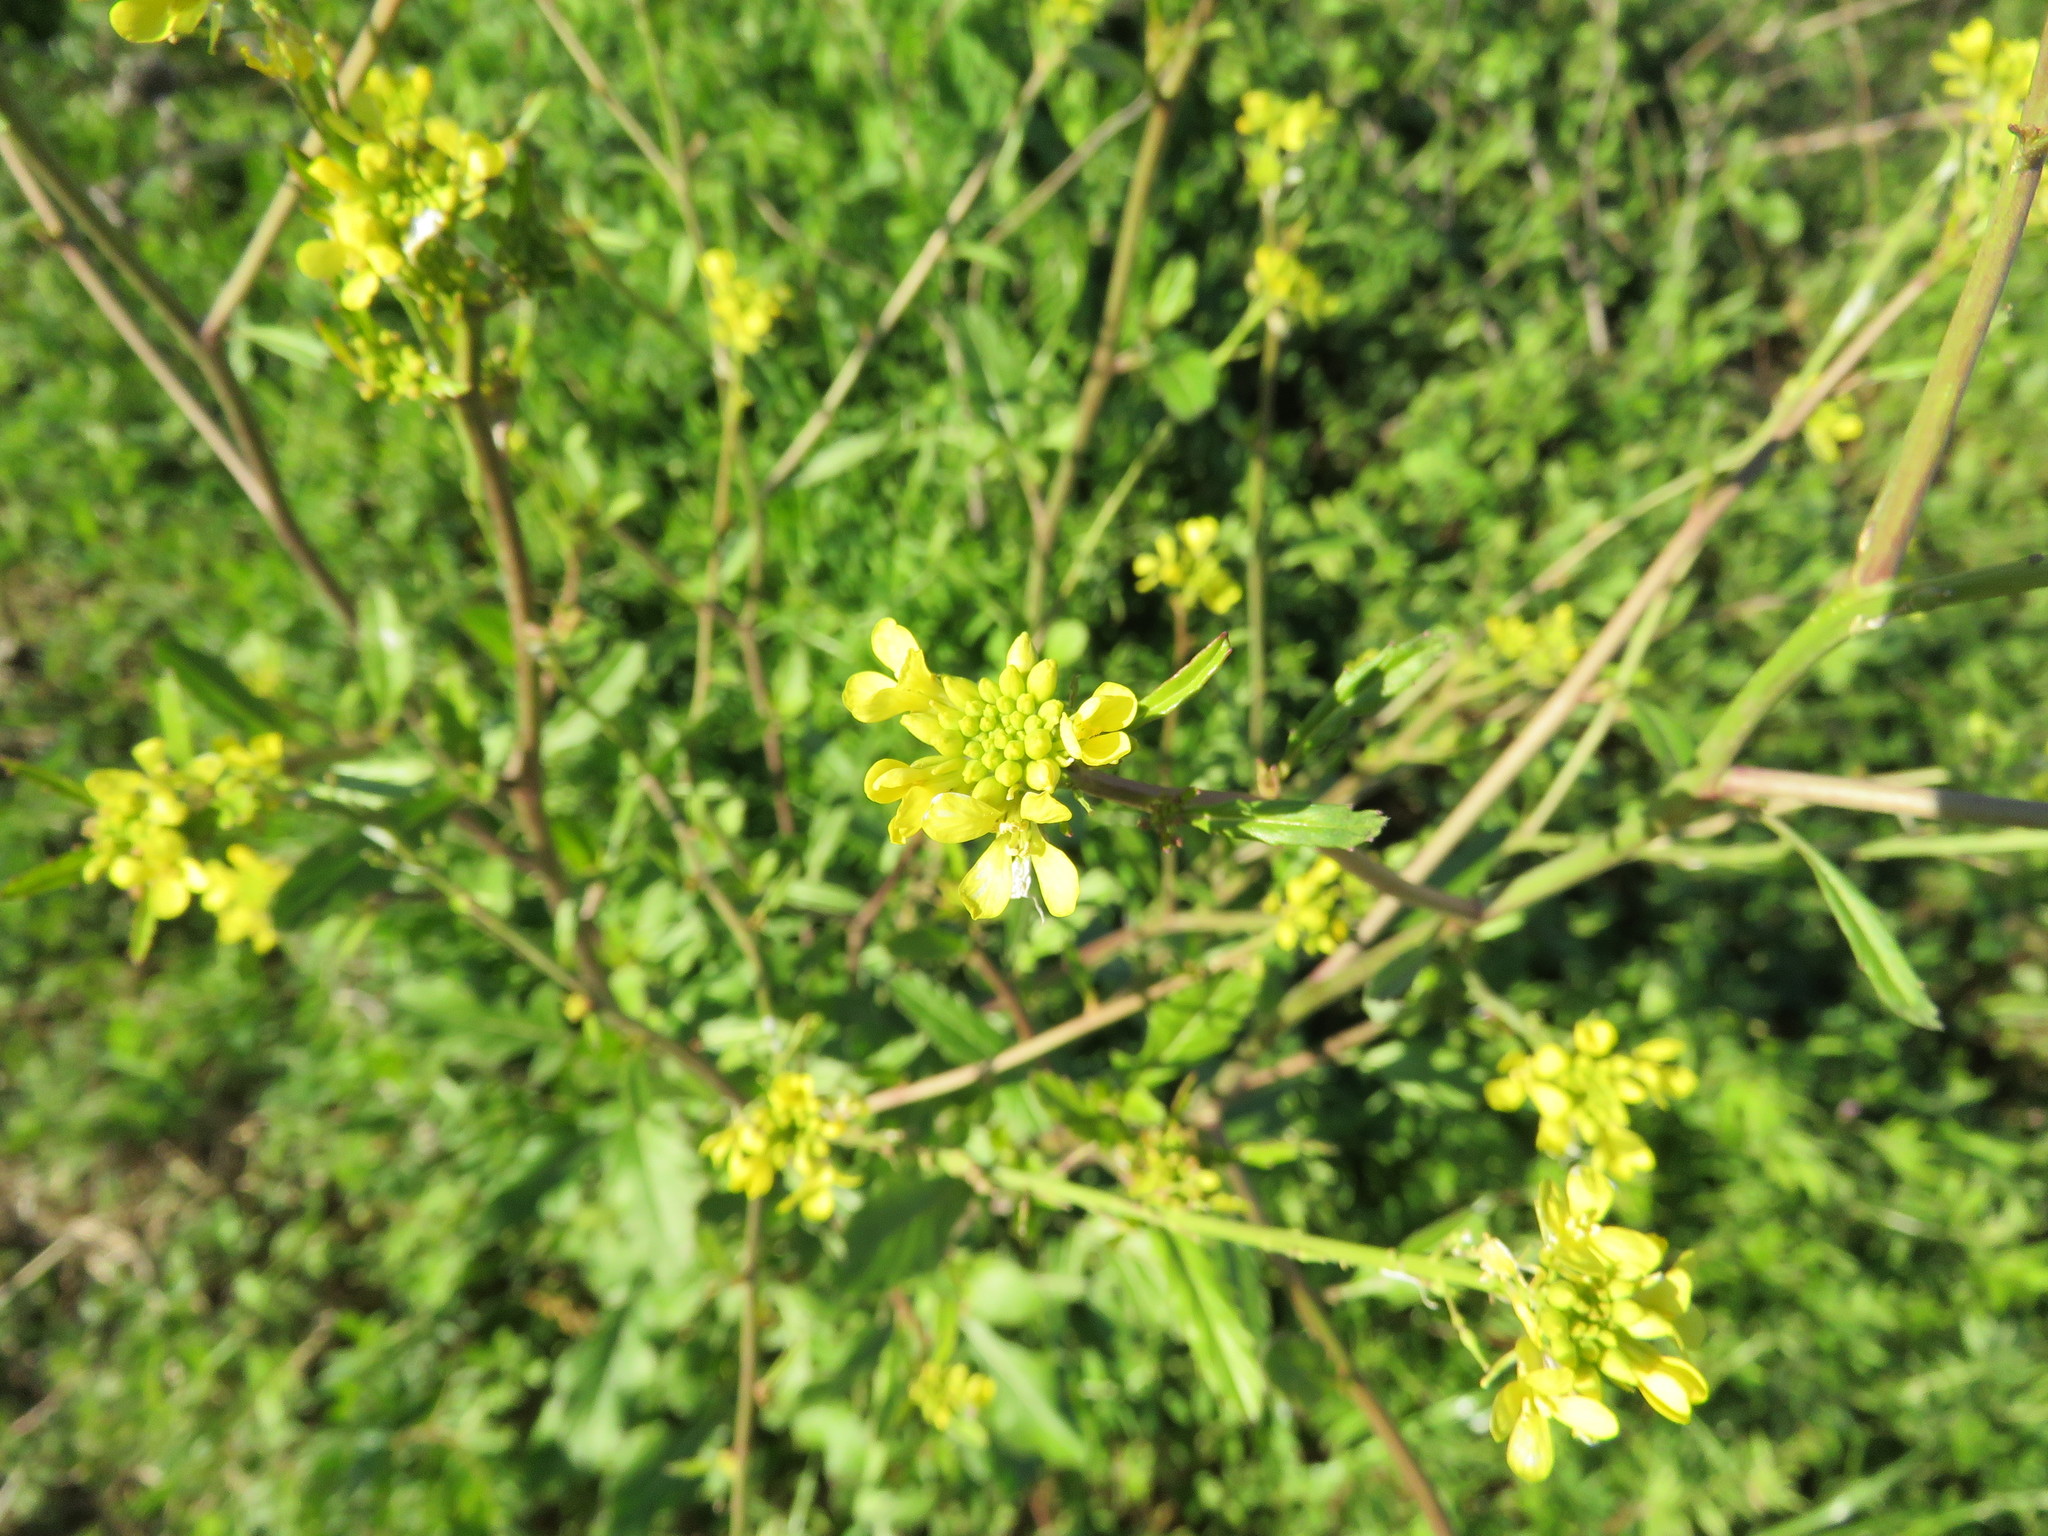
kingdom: Plantae
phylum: Tracheophyta
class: Magnoliopsida
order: Brassicales
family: Brassicaceae
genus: Rapistrum
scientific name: Rapistrum rugosum
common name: Annual bastardcabbage
